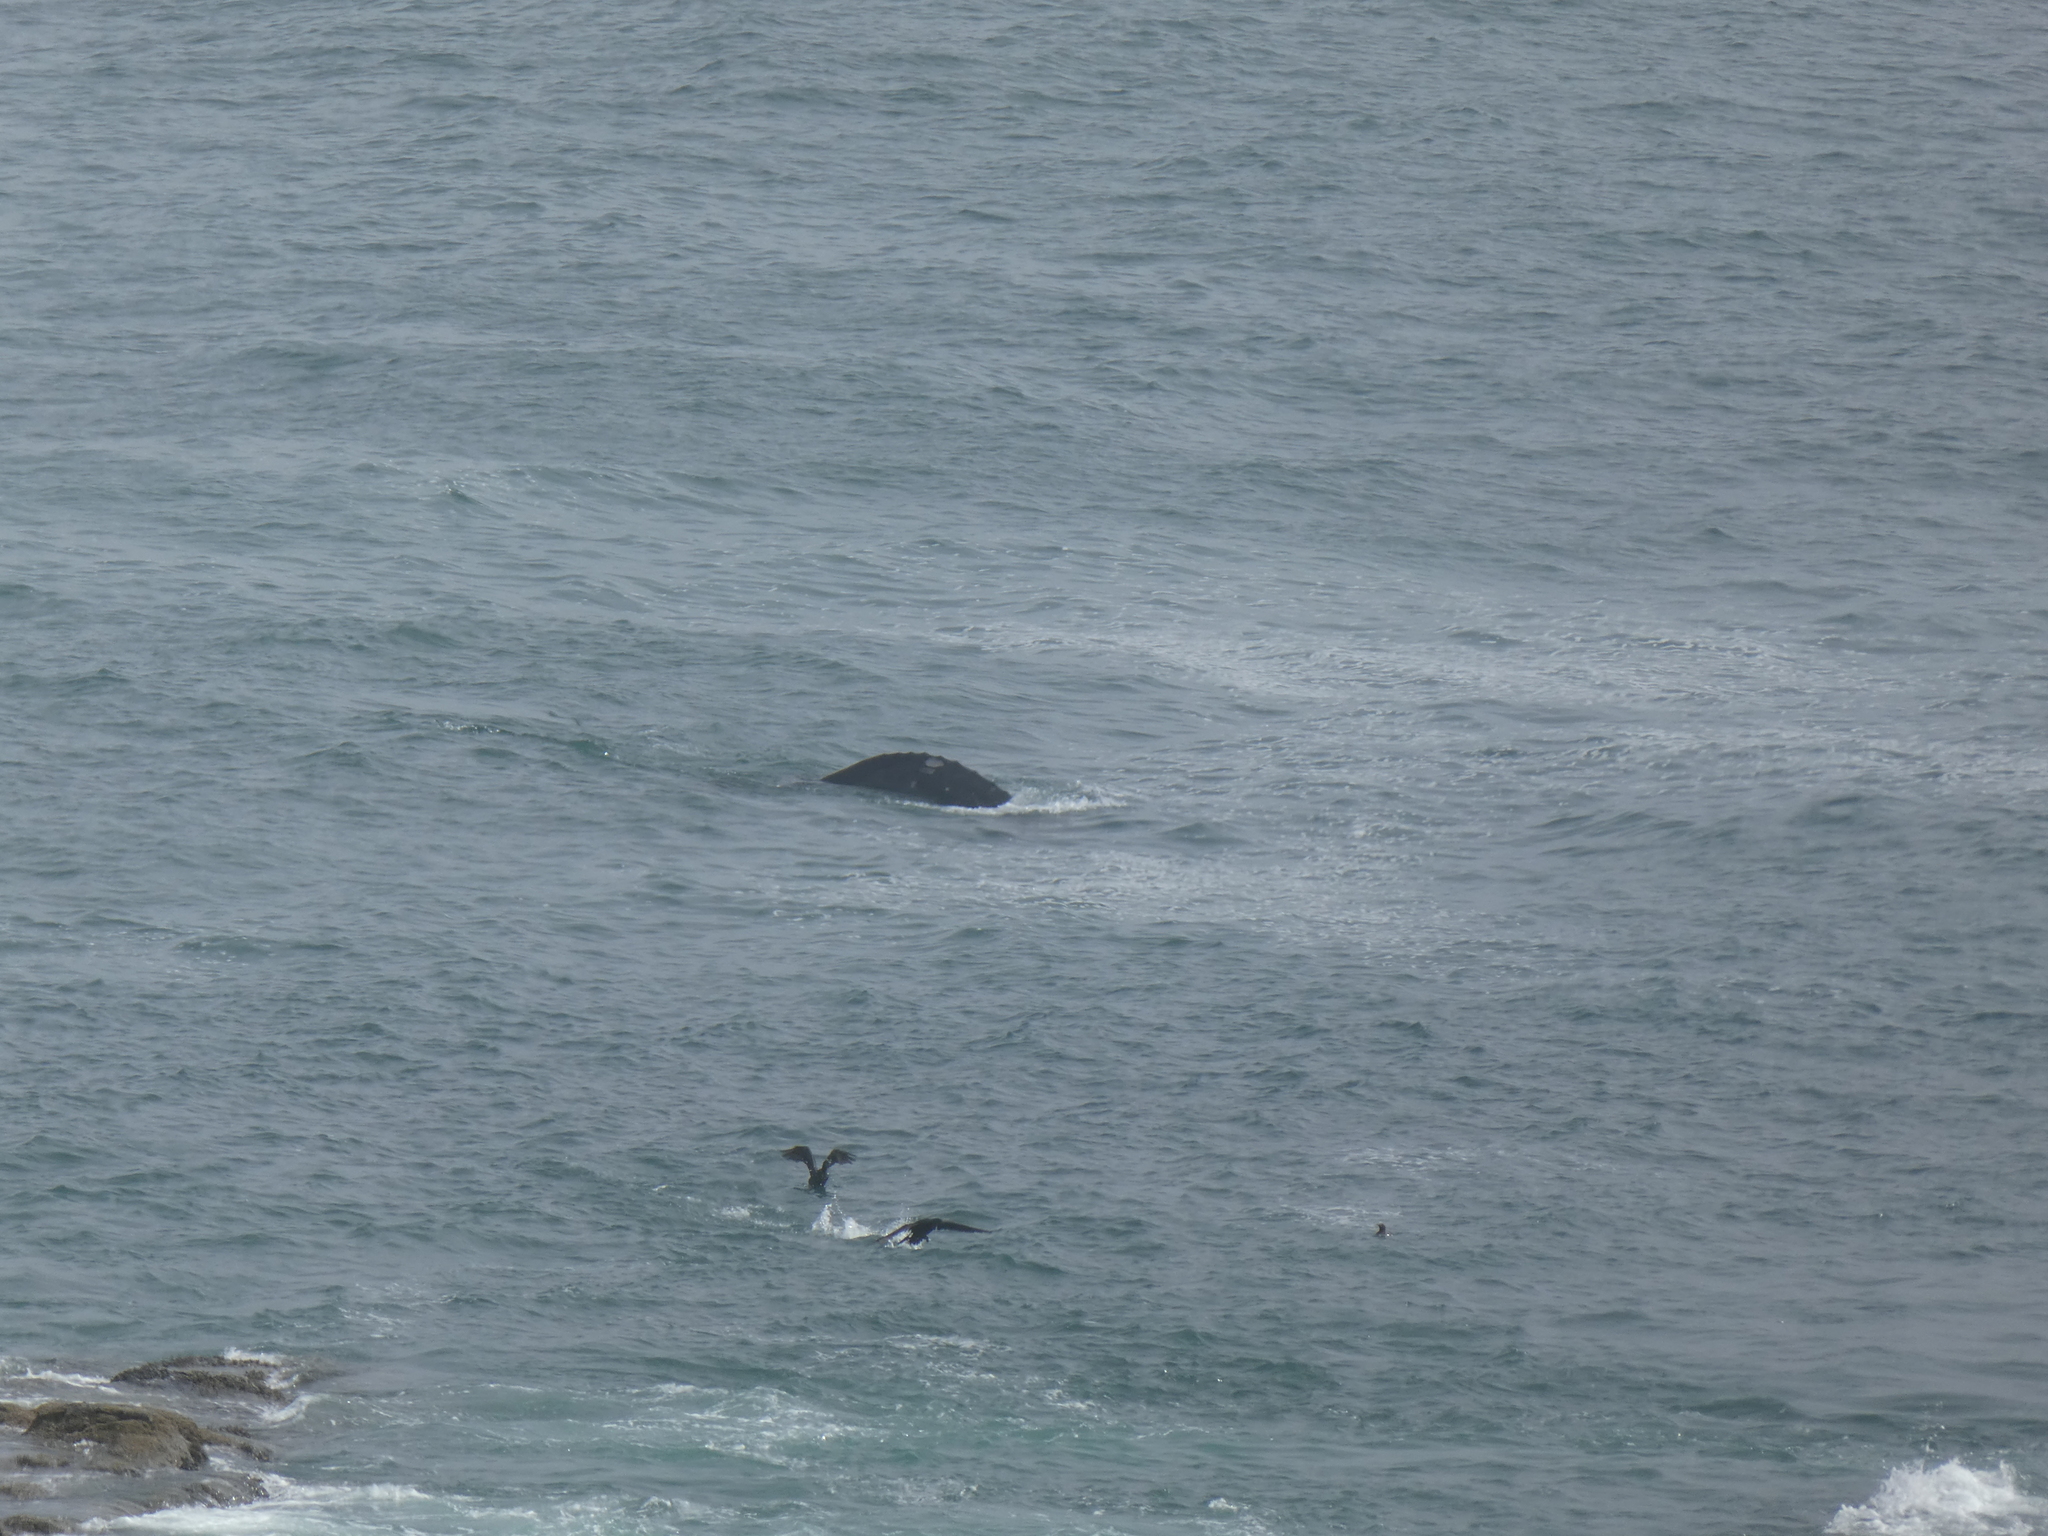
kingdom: Animalia
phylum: Chordata
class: Mammalia
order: Cetacea
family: Eschrichtiidae
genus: Eschrichtius
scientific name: Eschrichtius robustus
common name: Gray whale
